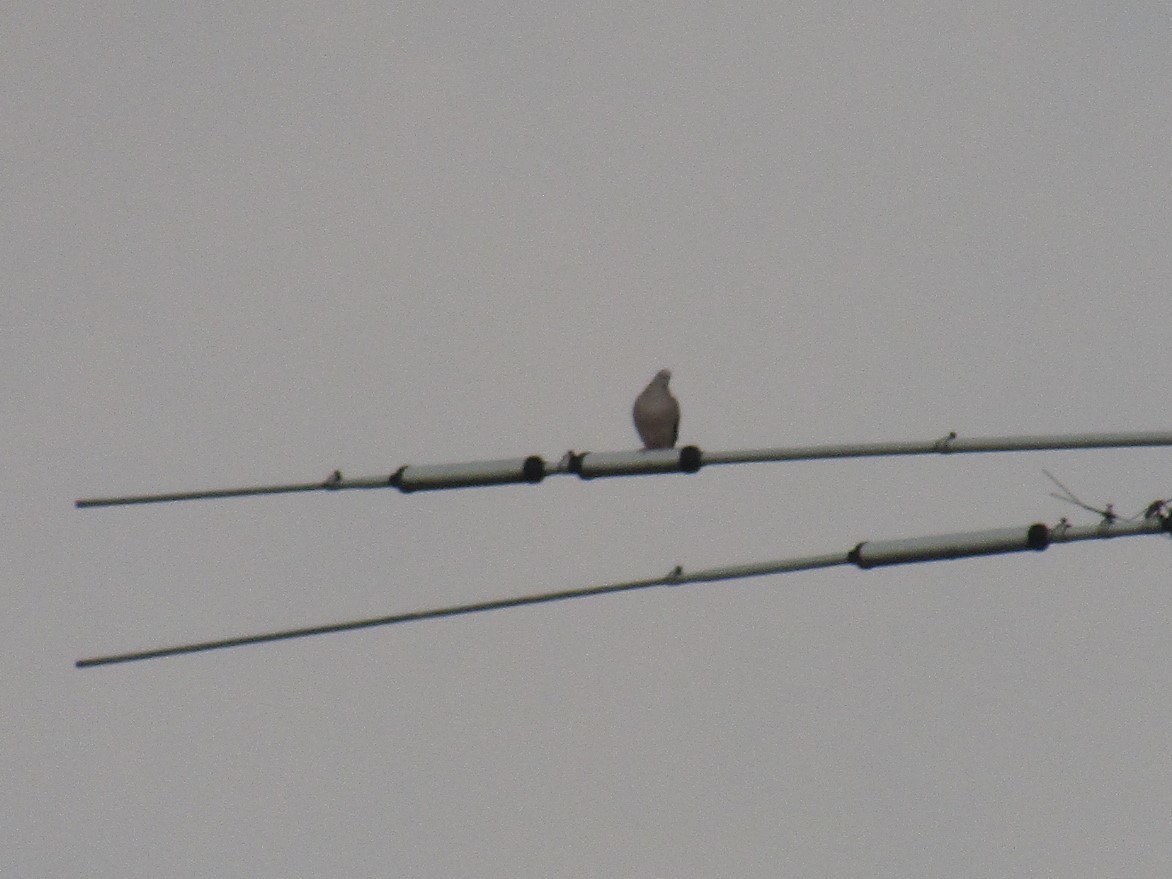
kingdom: Animalia
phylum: Chordata
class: Aves
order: Columbiformes
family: Columbidae
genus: Zenaida
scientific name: Zenaida auriculata
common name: Eared dove
